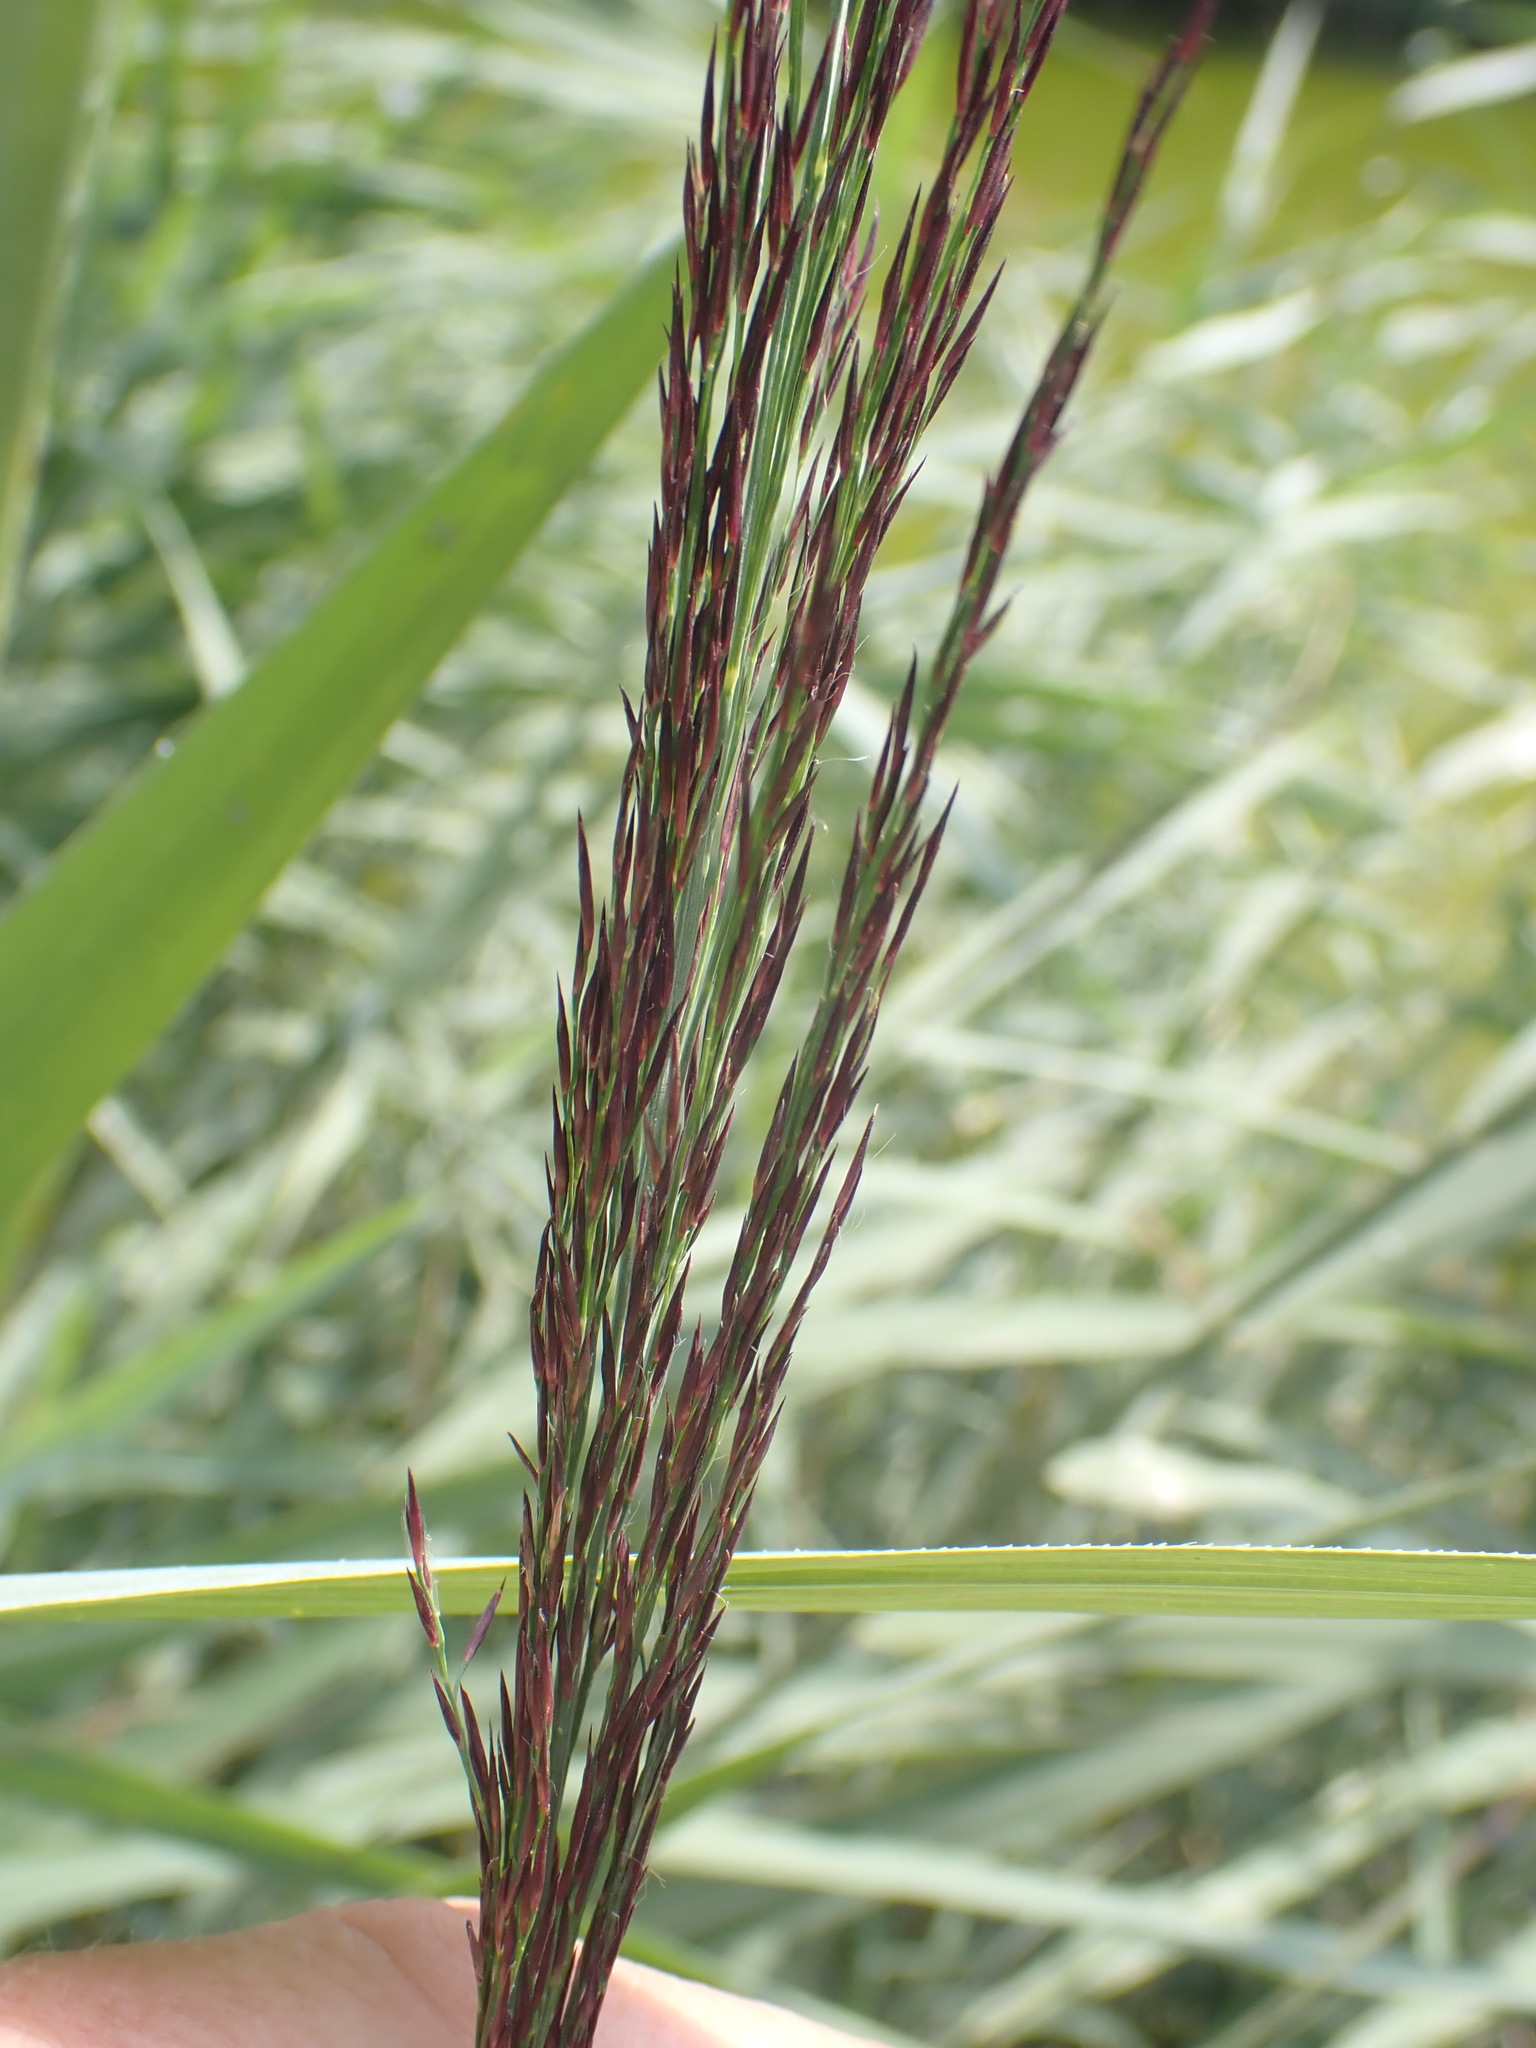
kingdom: Plantae
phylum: Tracheophyta
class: Liliopsida
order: Poales
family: Poaceae
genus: Phragmites
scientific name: Phragmites australis
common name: Common reed
